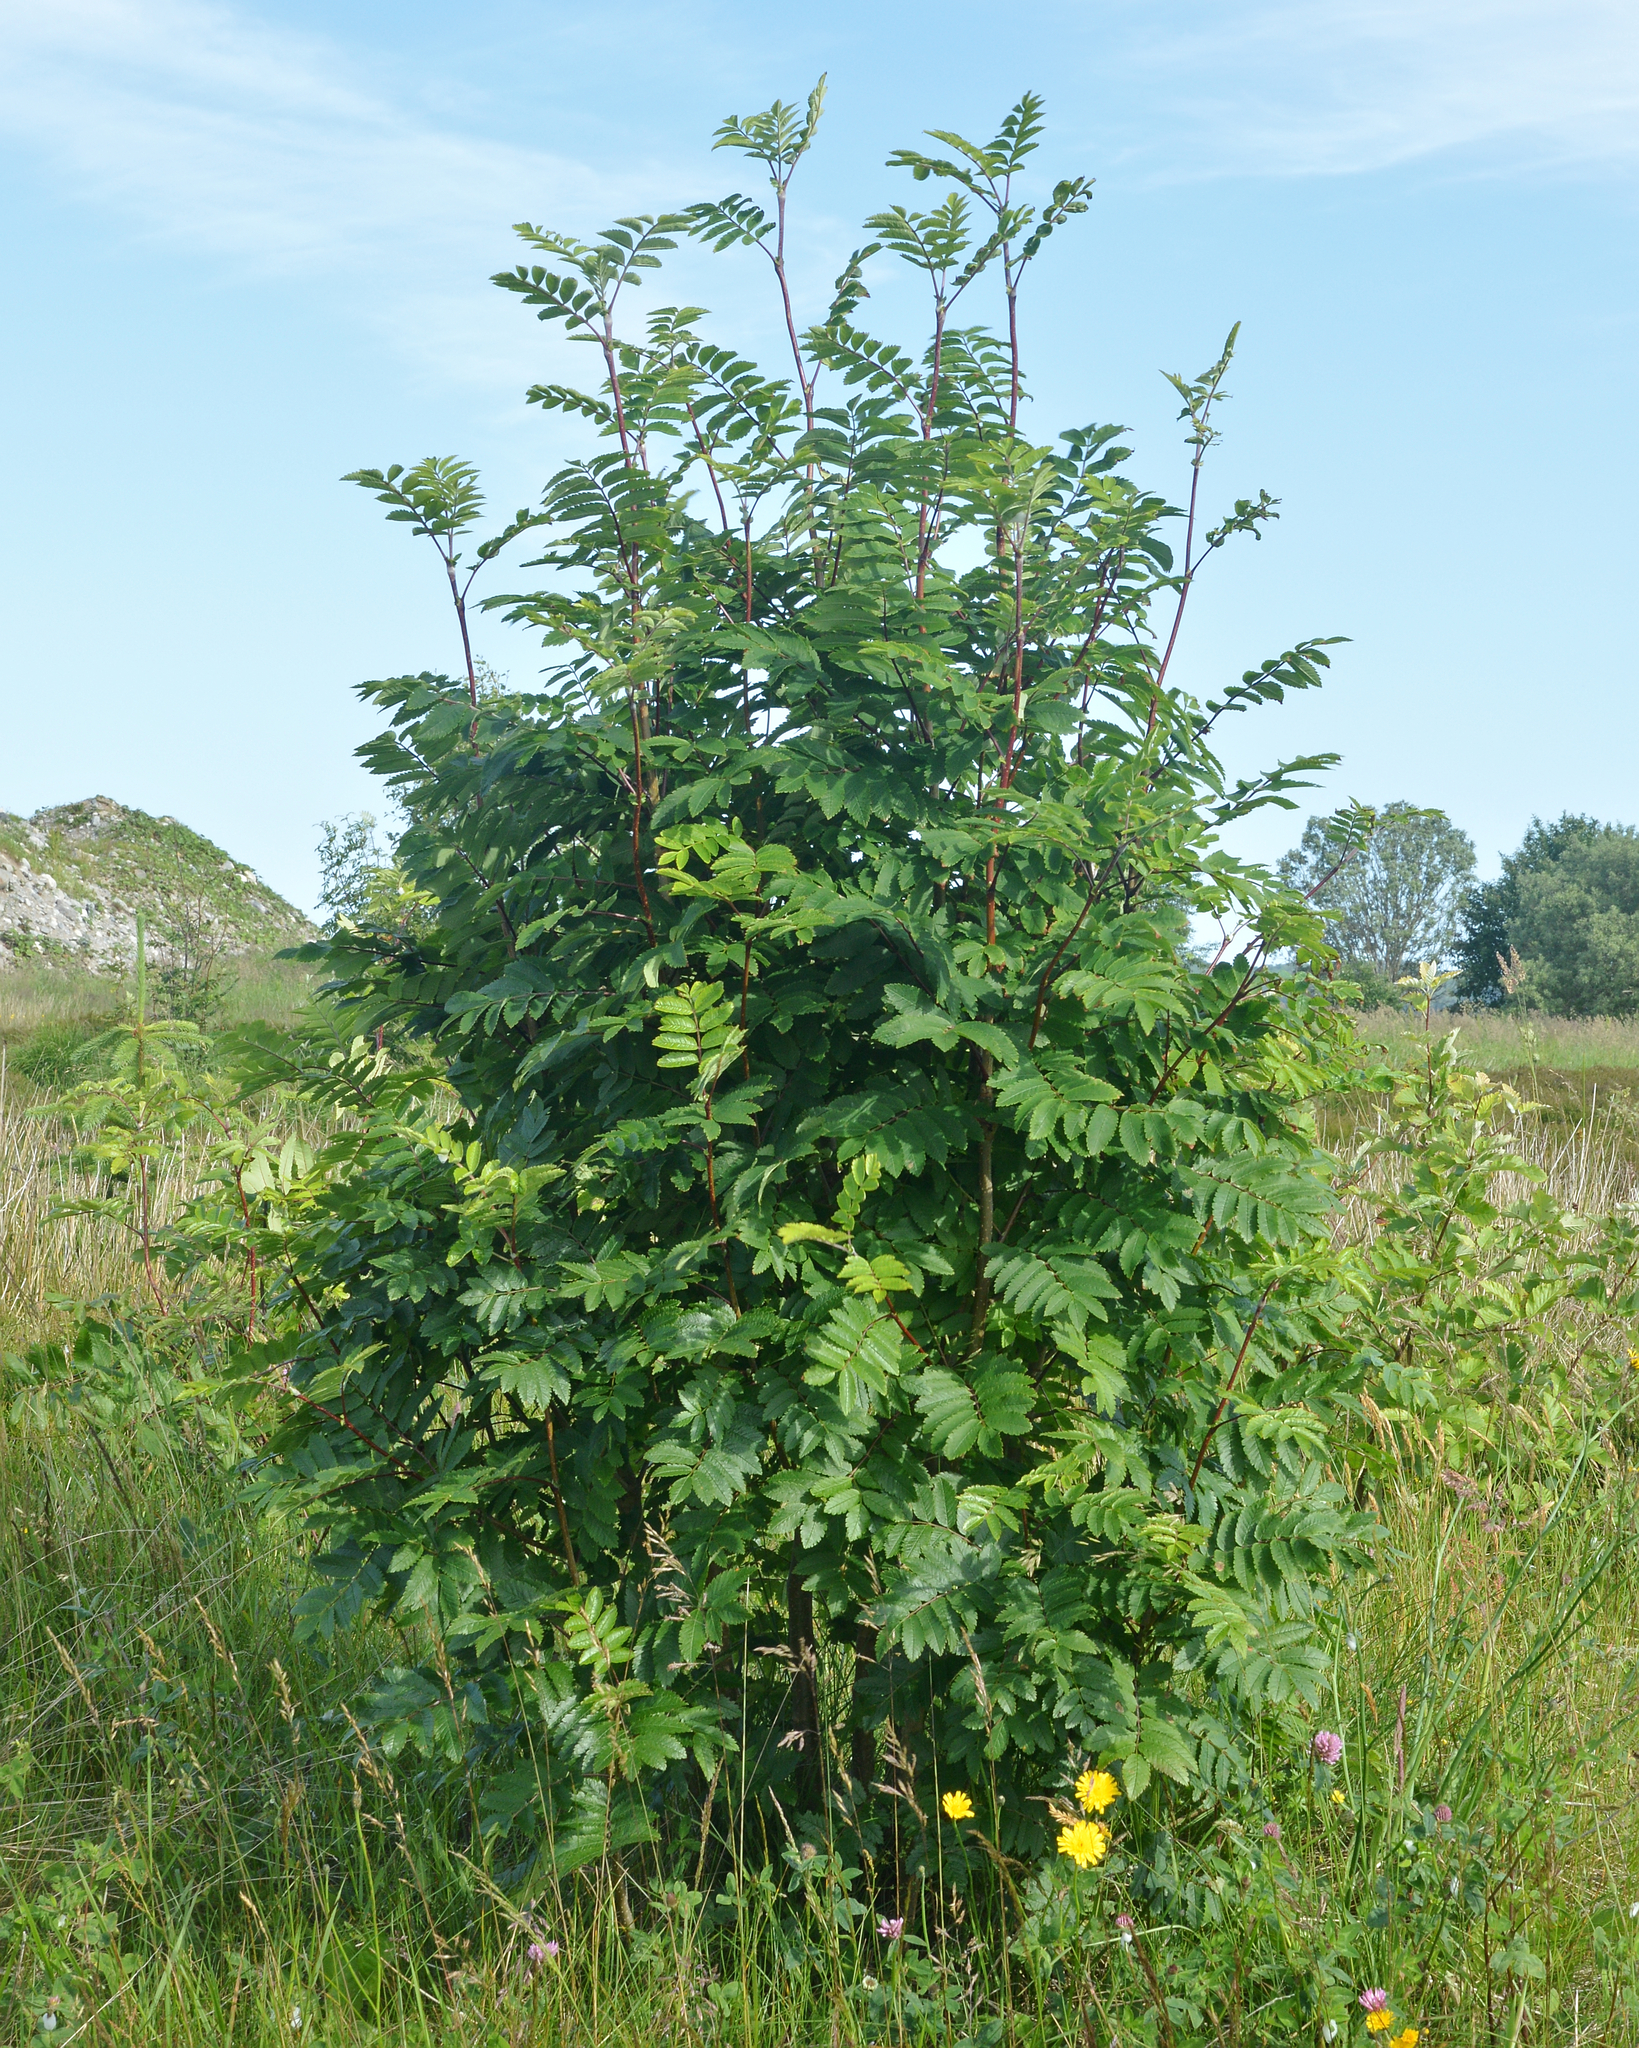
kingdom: Plantae
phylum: Tracheophyta
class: Magnoliopsida
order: Rosales
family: Rosaceae
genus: Sorbus
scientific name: Sorbus aucuparia
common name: Rowan
